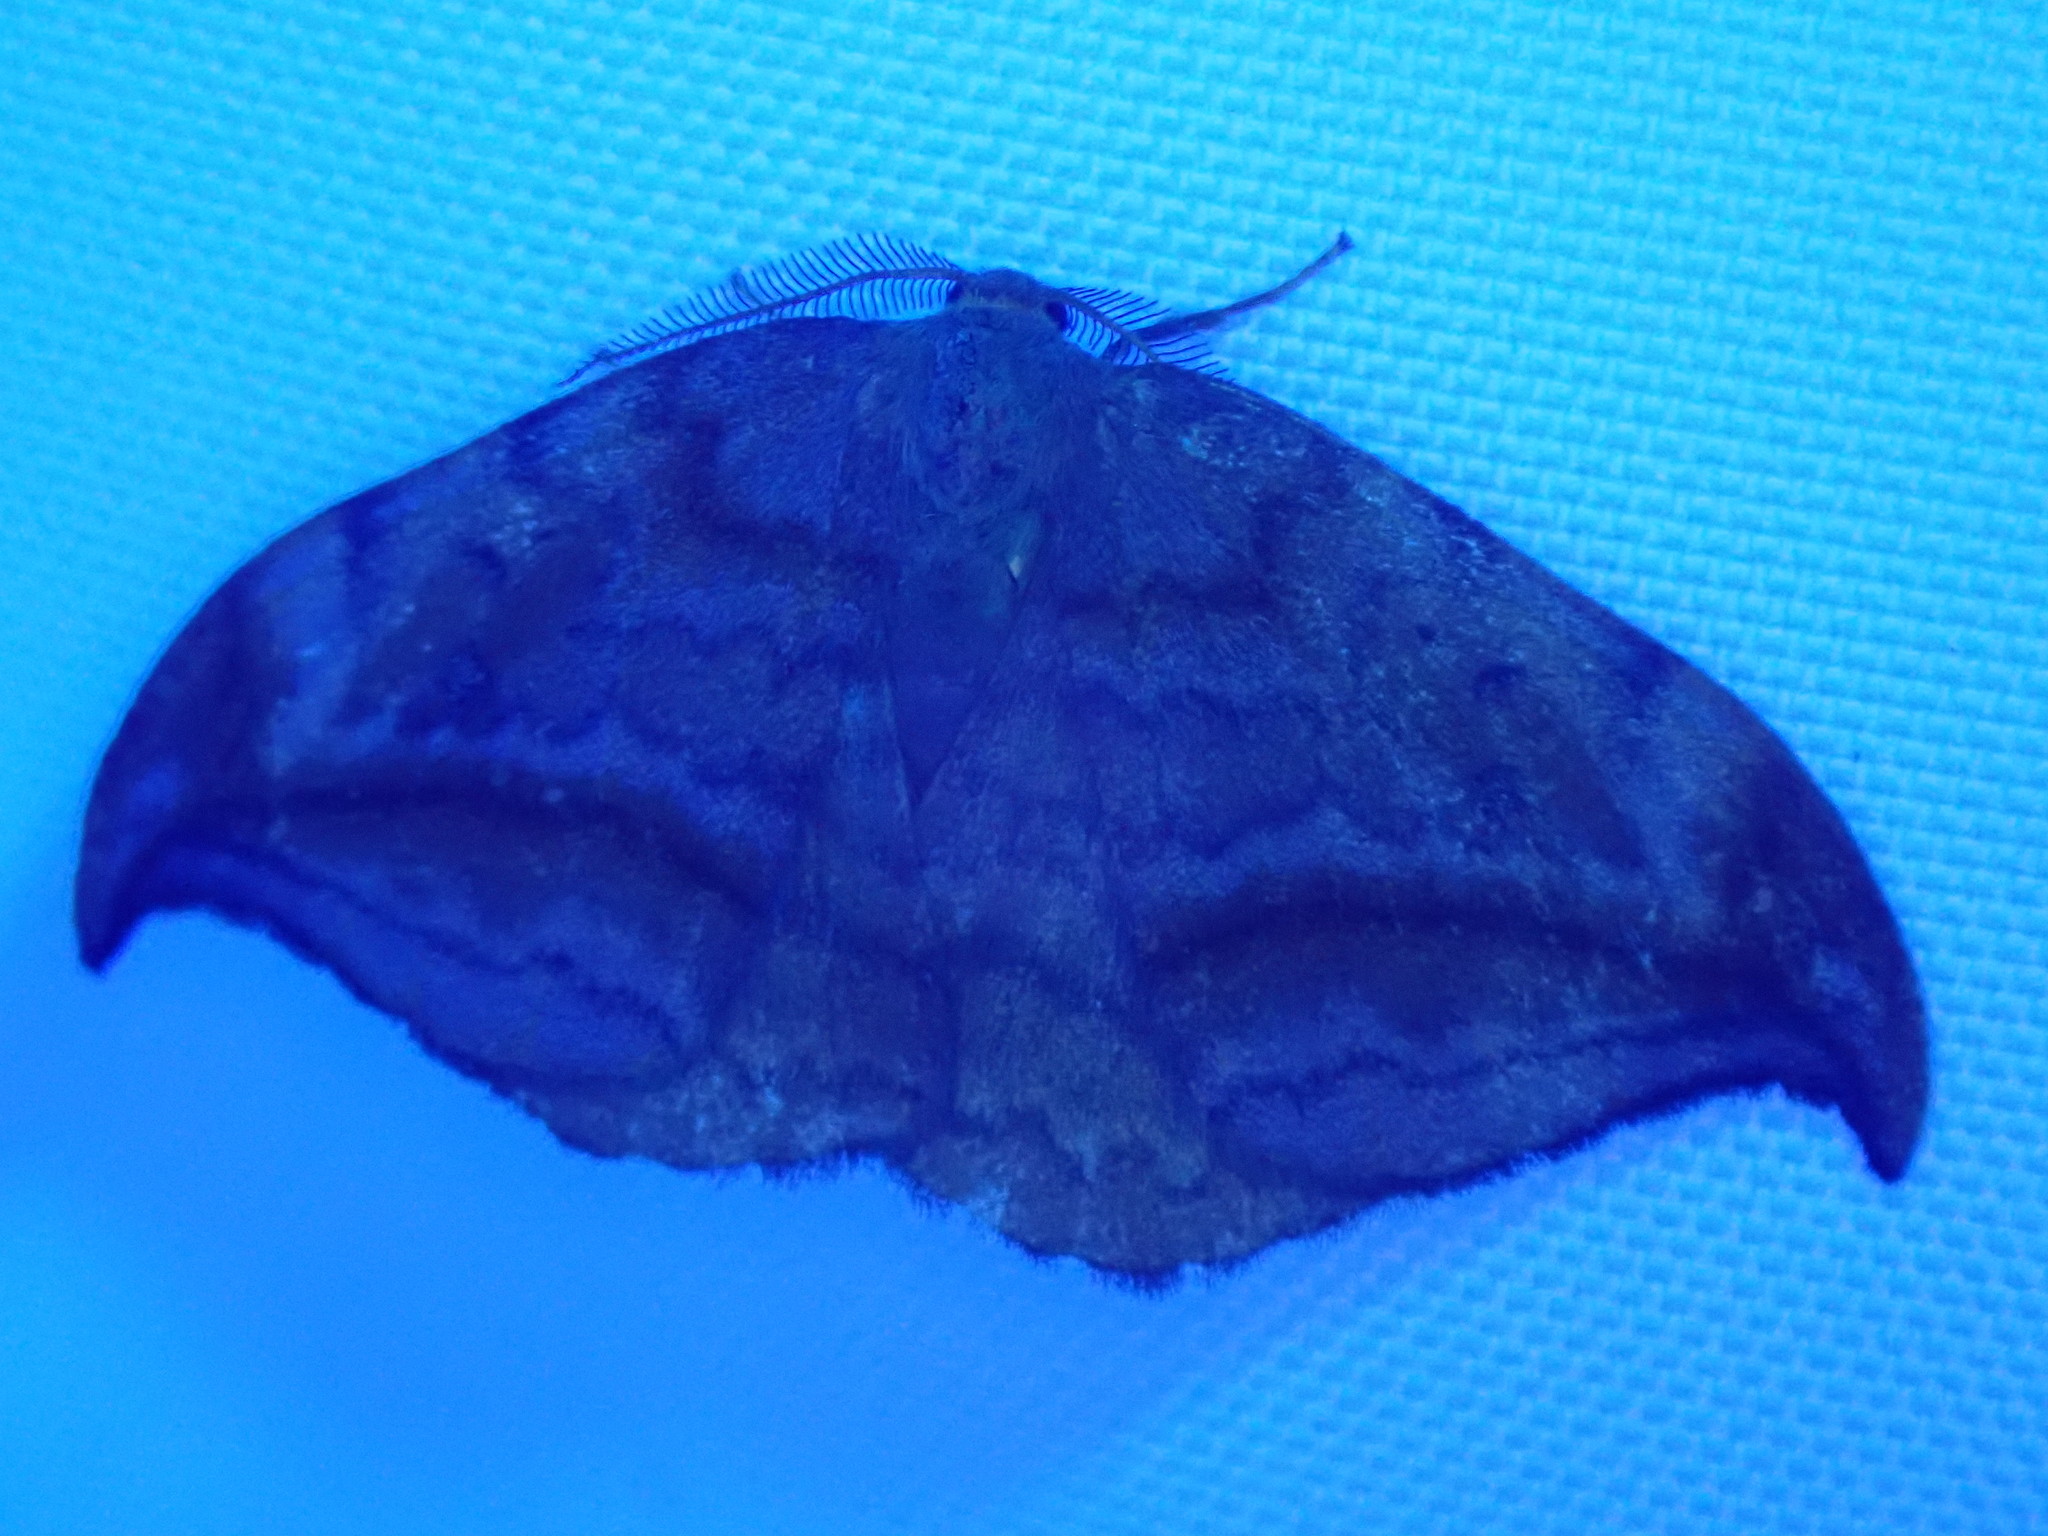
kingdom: Animalia
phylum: Arthropoda
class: Insecta
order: Lepidoptera
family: Drepanidae
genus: Drepana
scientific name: Drepana curvatula
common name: Dusky hook-tip
